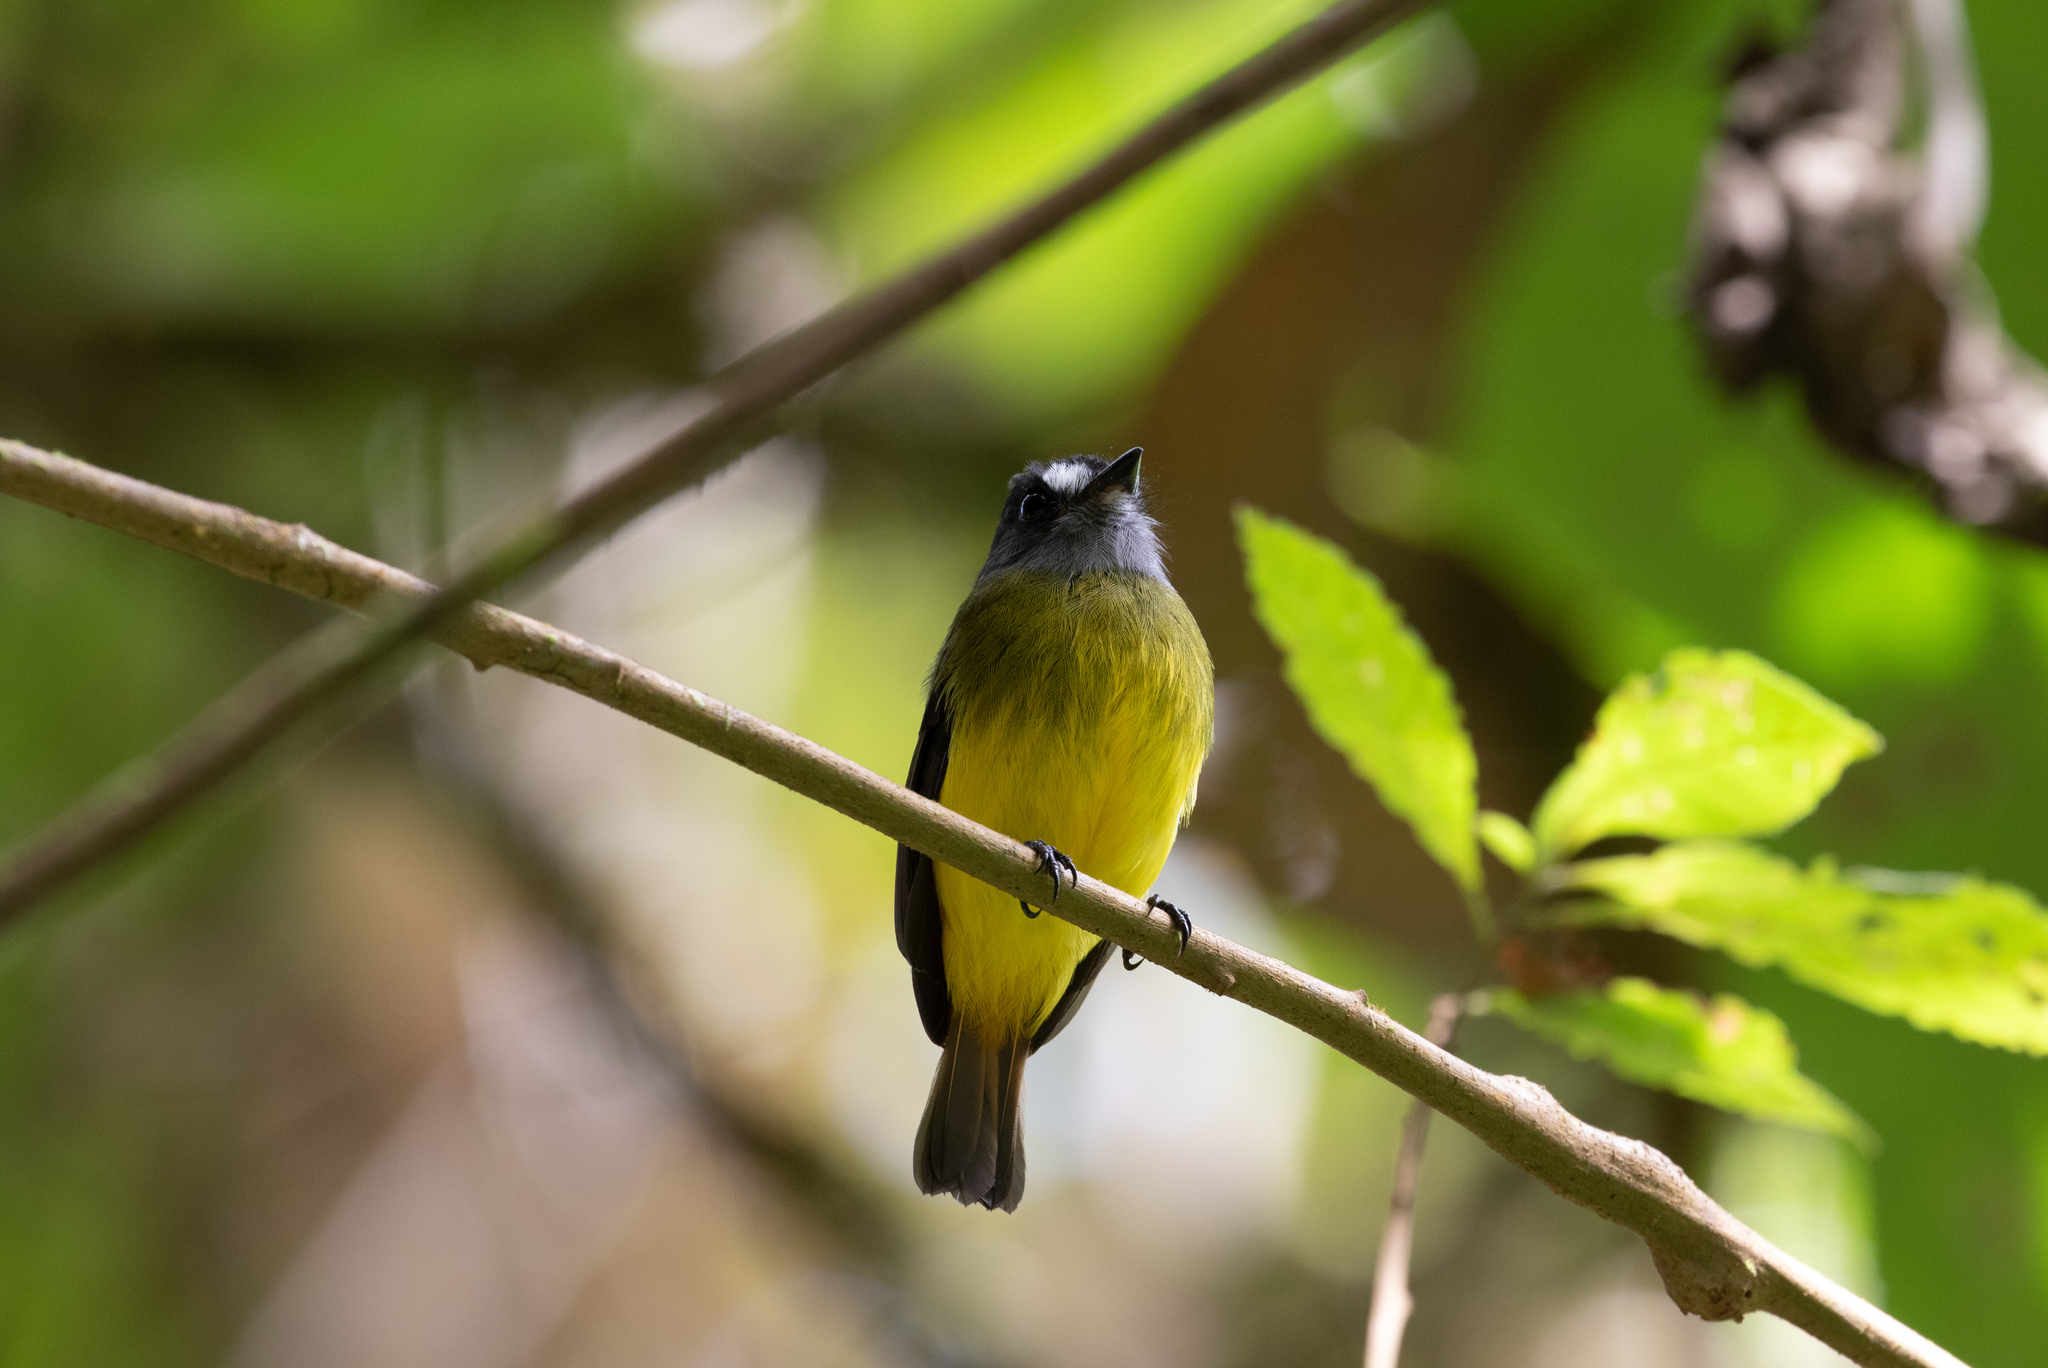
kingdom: Animalia
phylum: Chordata
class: Aves
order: Passeriformes
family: Tyrannidae
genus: Myiotriccus
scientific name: Myiotriccus ornatus
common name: Ornate flycatcher
